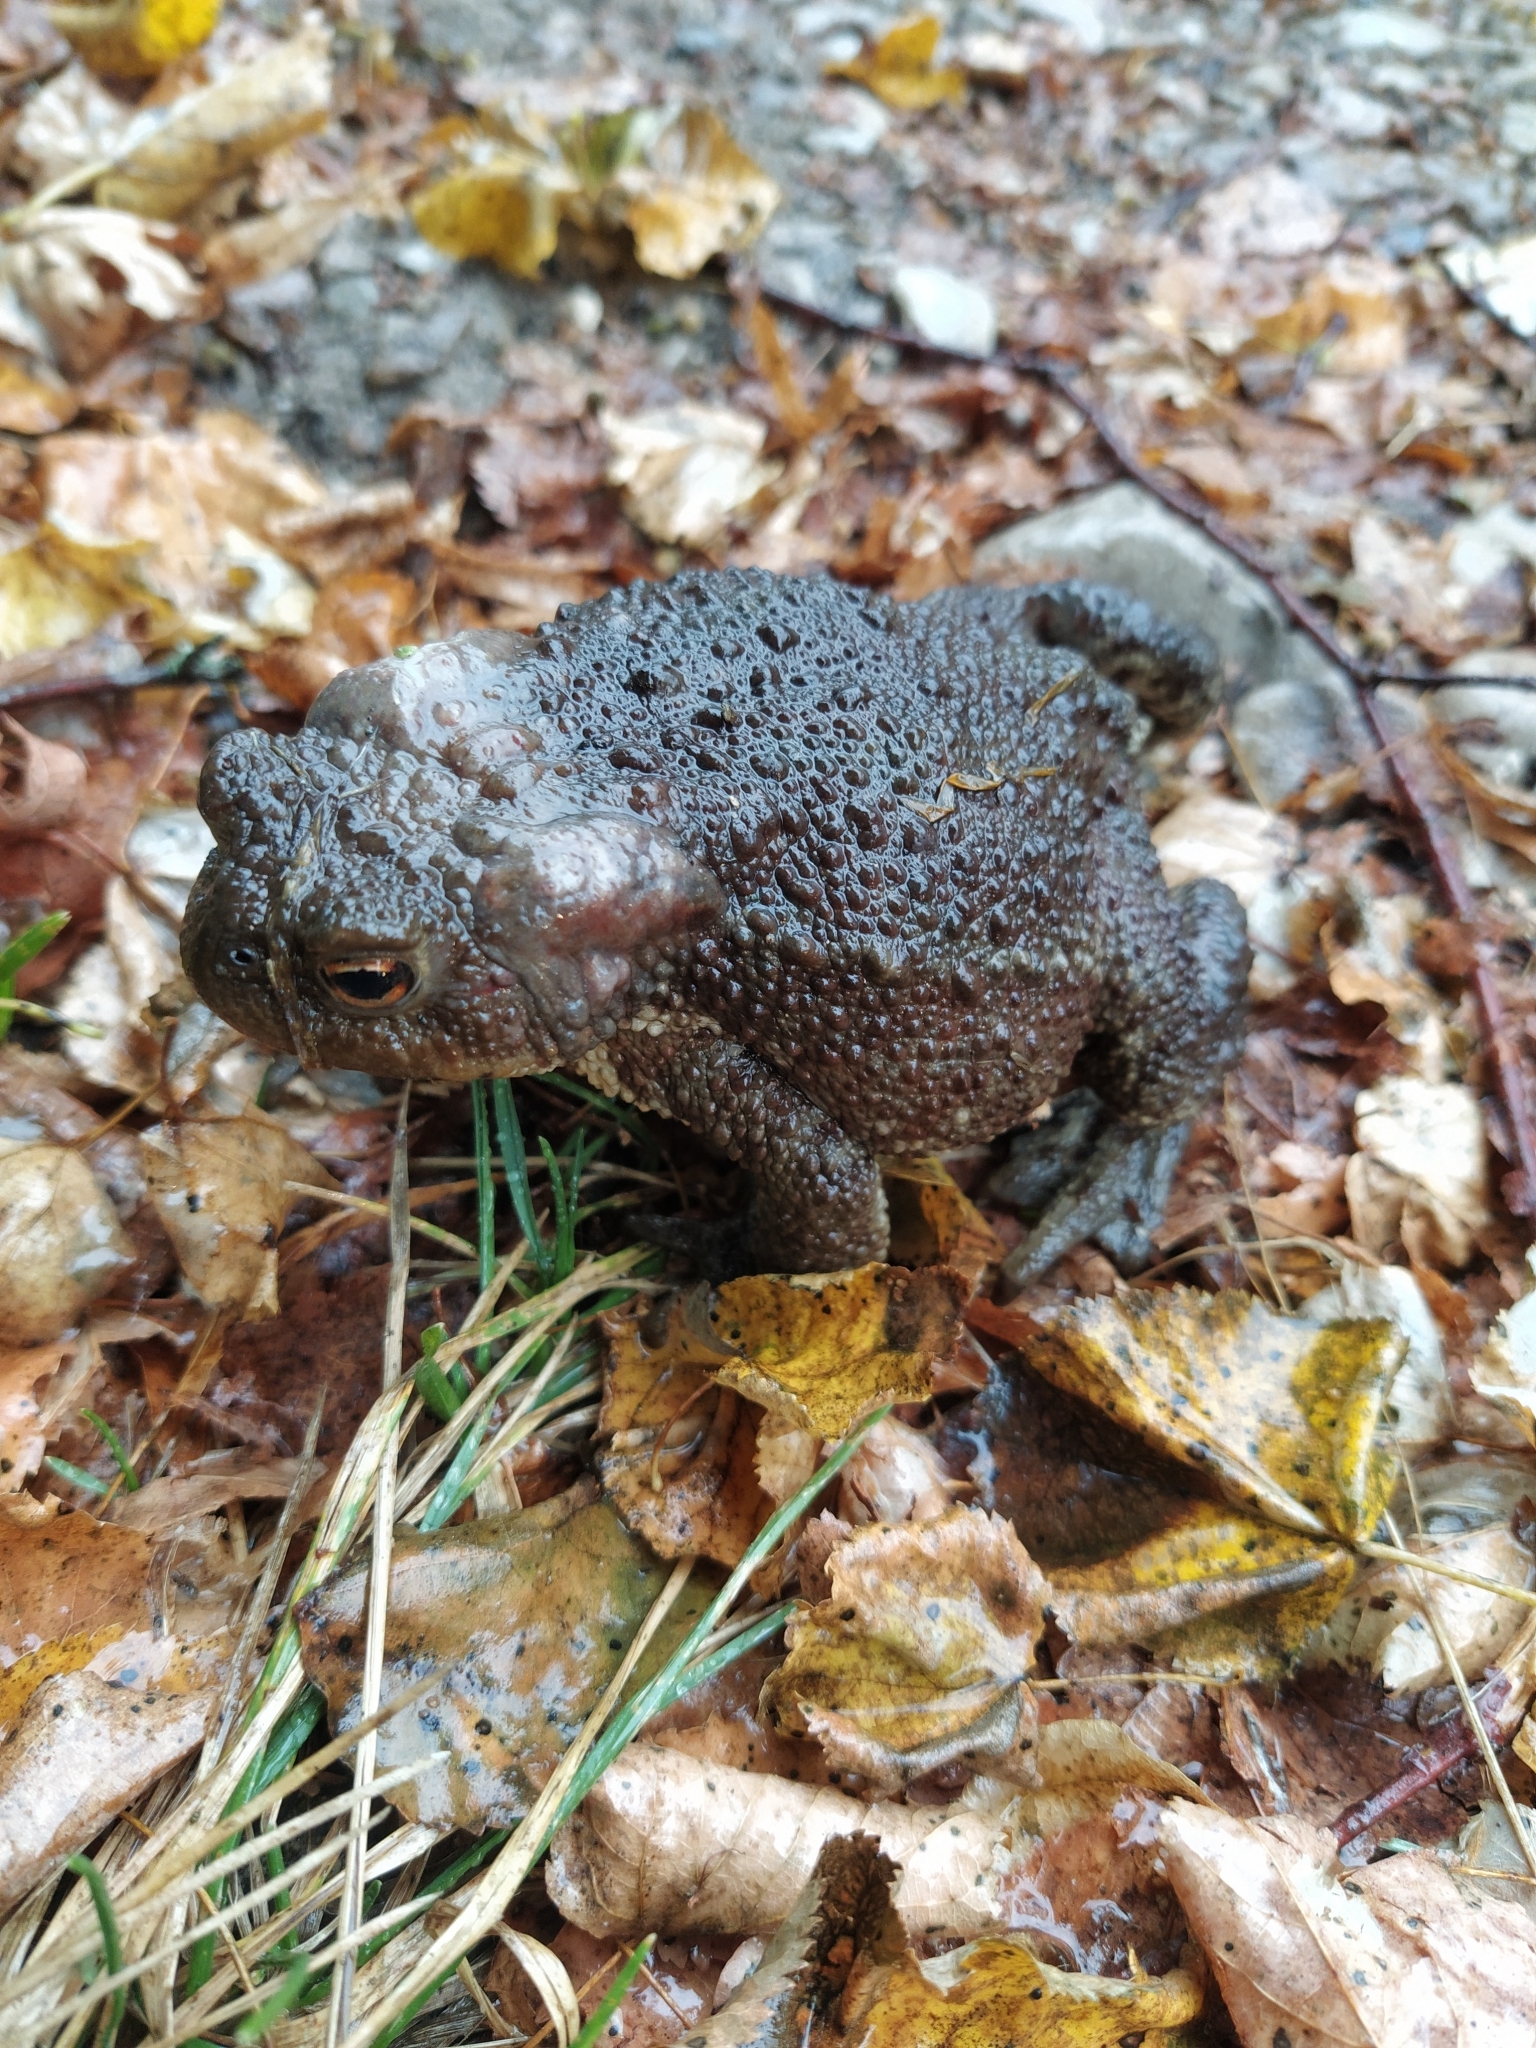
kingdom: Animalia
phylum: Chordata
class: Amphibia
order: Anura
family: Bufonidae
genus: Bufo
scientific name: Bufo bufo
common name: Common toad
